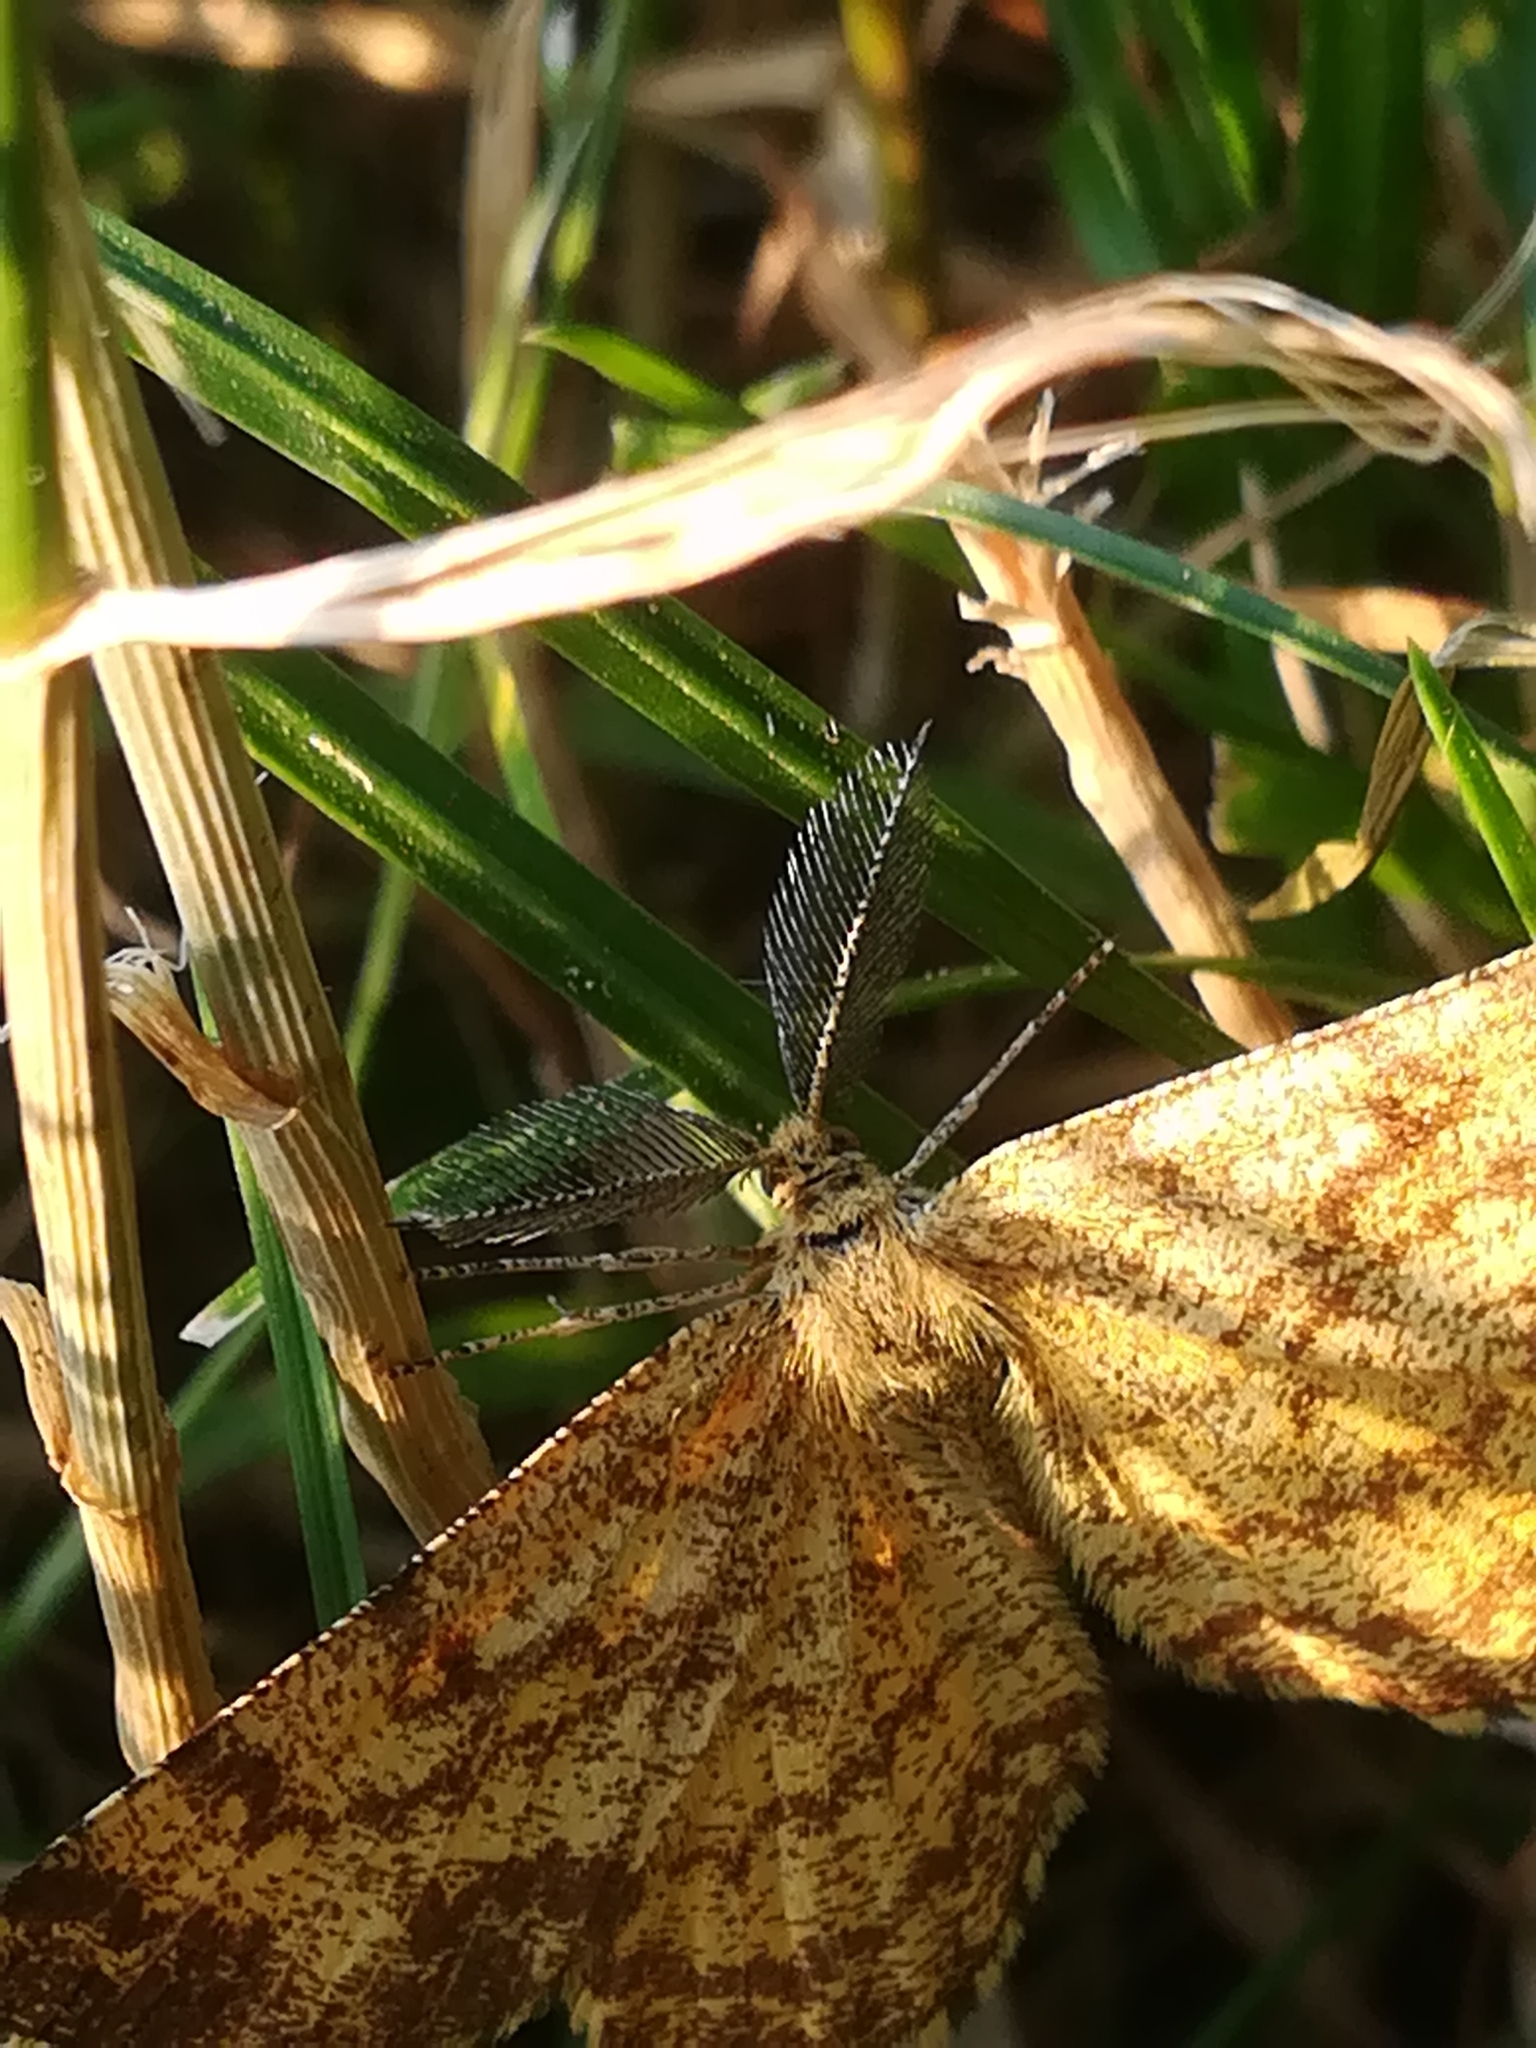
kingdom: Animalia
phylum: Arthropoda
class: Insecta
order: Lepidoptera
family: Geometridae
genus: Ematurga
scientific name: Ematurga atomaria
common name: Common heath
